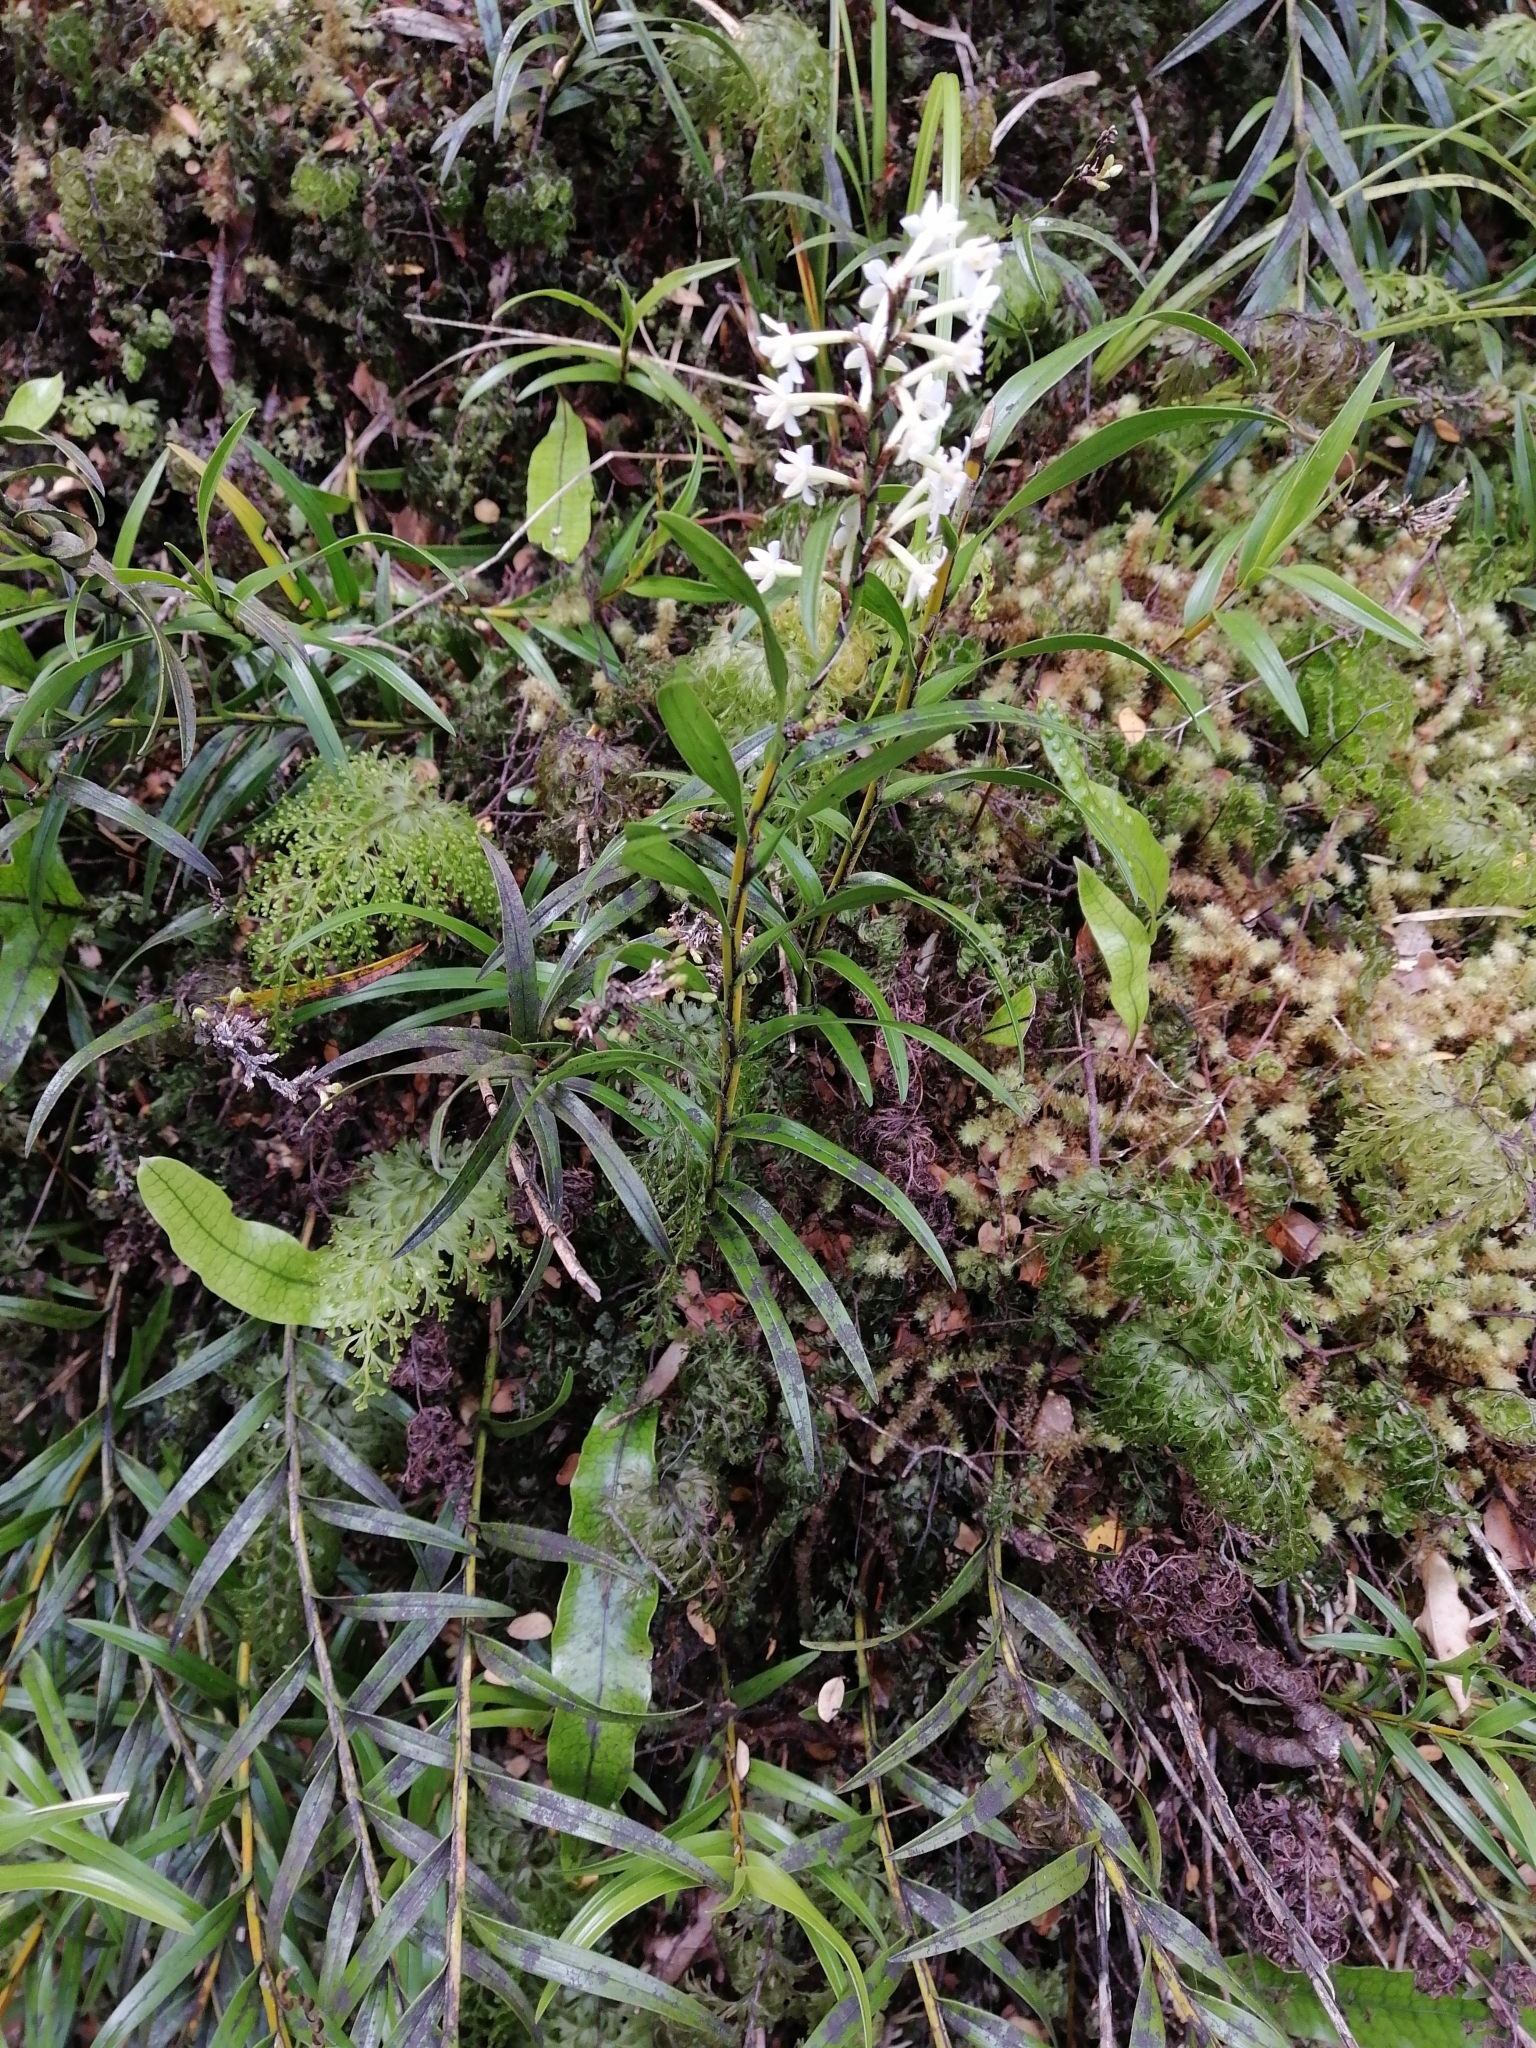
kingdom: Plantae
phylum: Tracheophyta
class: Liliopsida
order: Asparagales
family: Orchidaceae
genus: Earina
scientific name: Earina autumnalis
